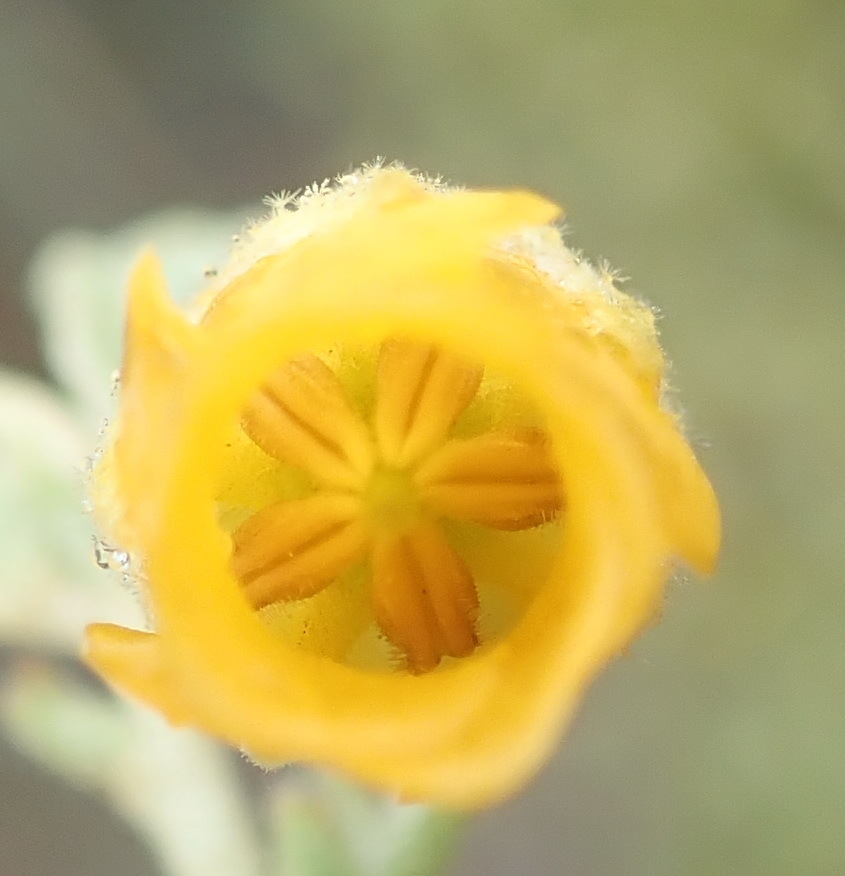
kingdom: Plantae
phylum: Tracheophyta
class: Magnoliopsida
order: Malvales
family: Malvaceae
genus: Hermannia
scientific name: Hermannia incana
